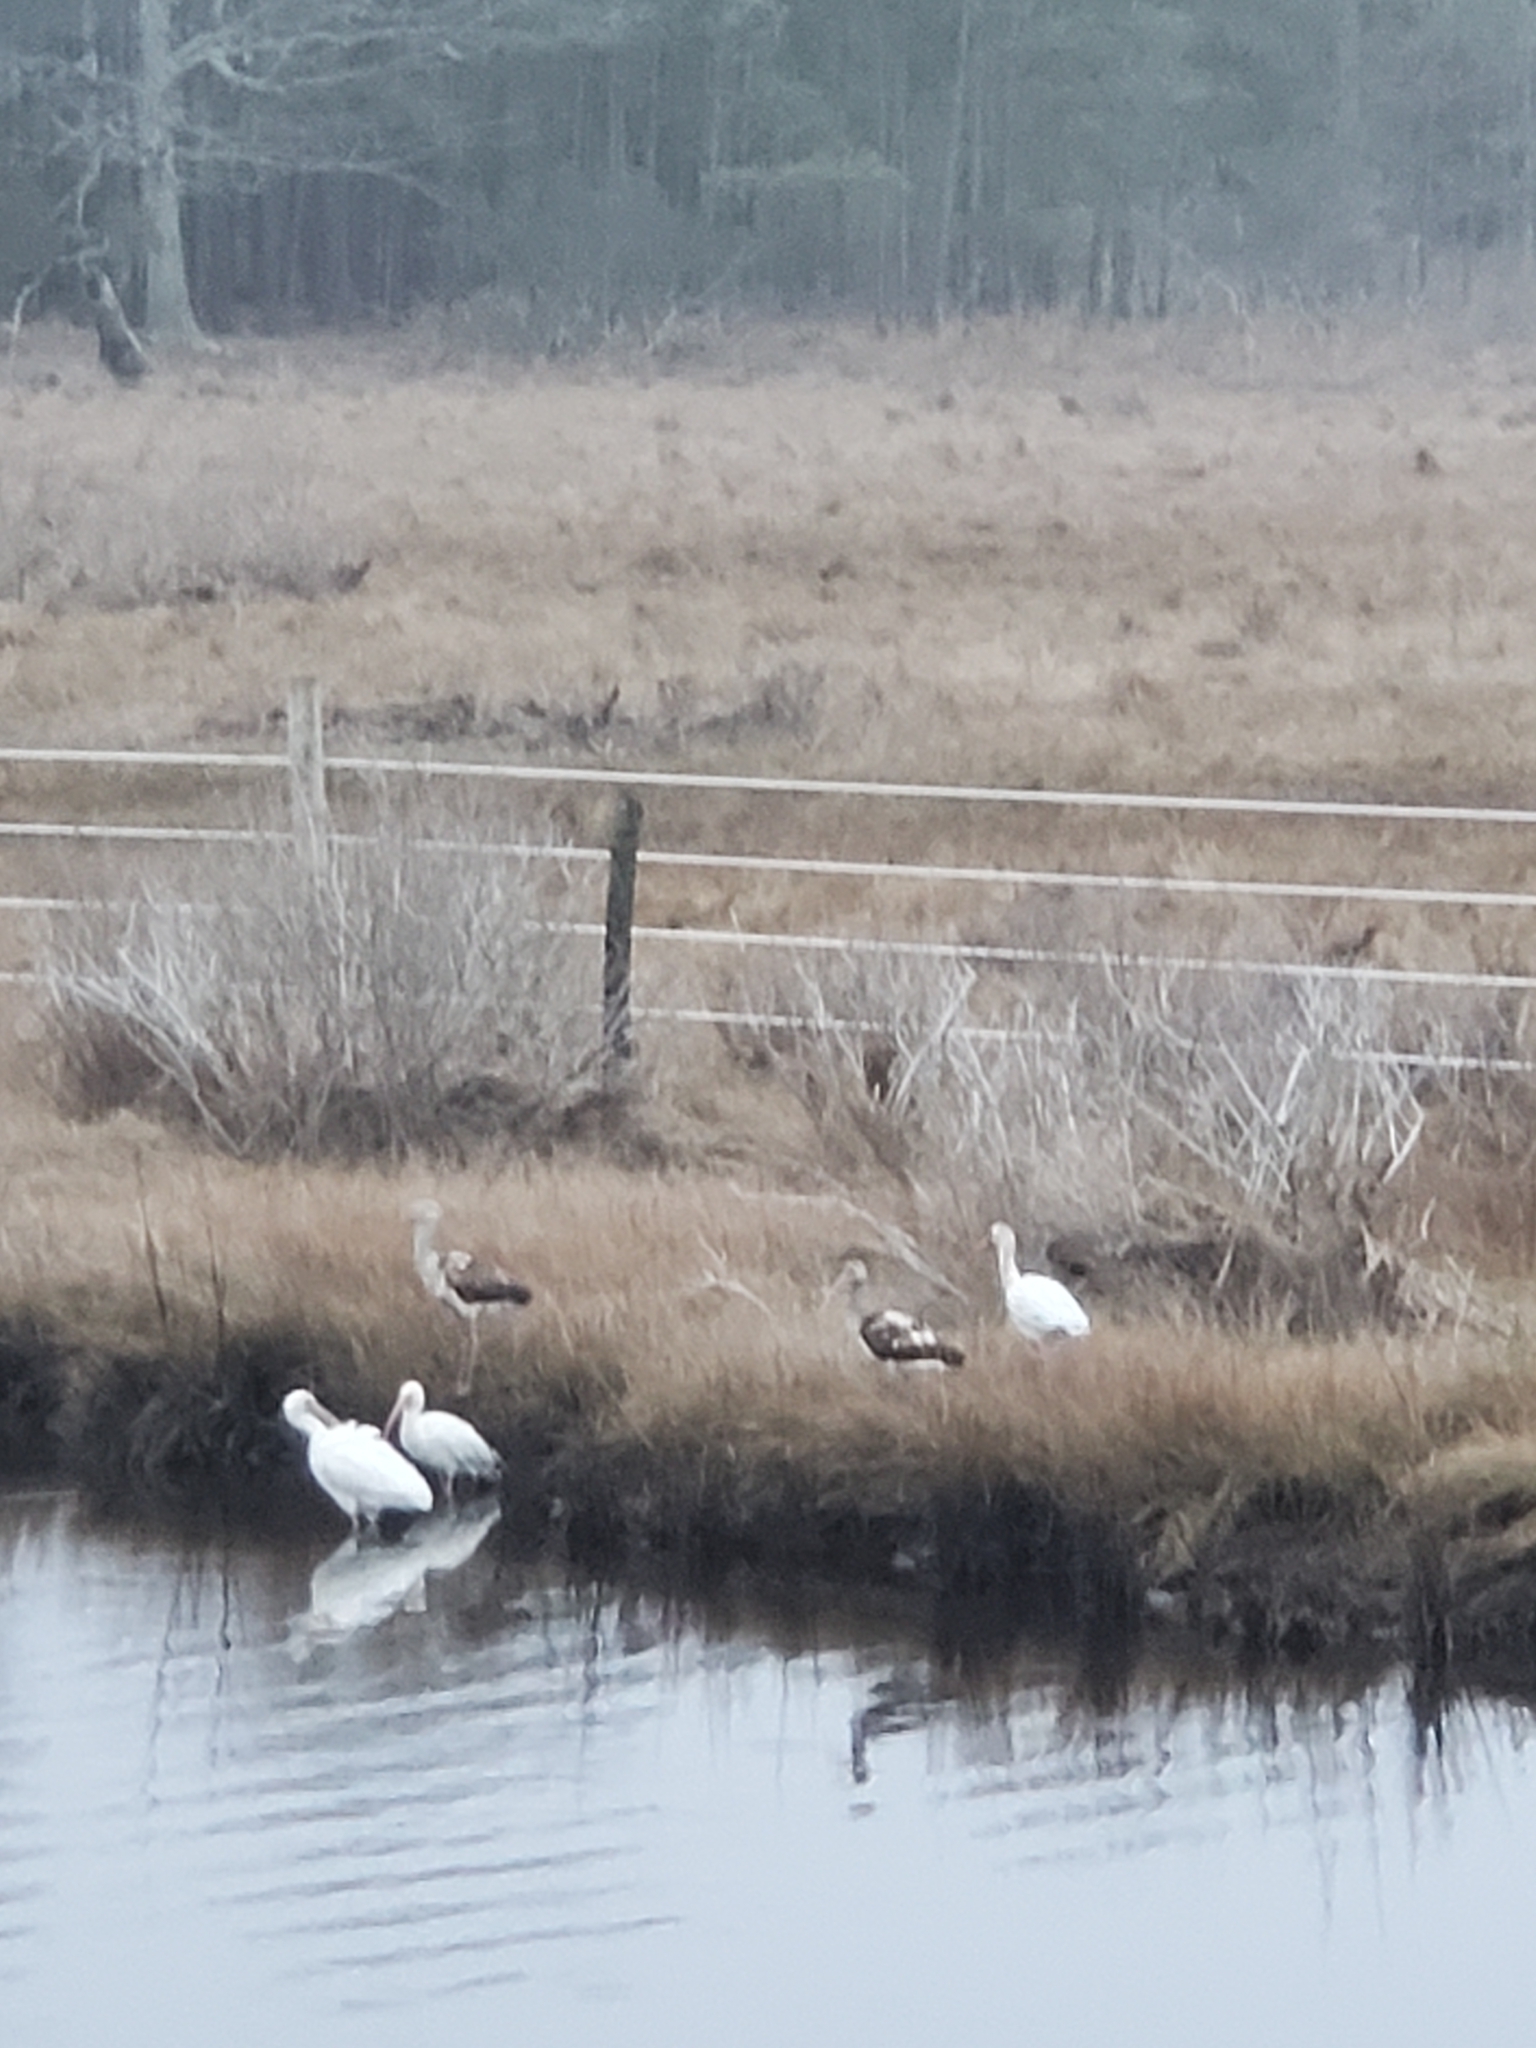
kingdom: Animalia
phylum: Chordata
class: Aves
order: Pelecaniformes
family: Threskiornithidae
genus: Eudocimus
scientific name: Eudocimus albus
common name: White ibis
